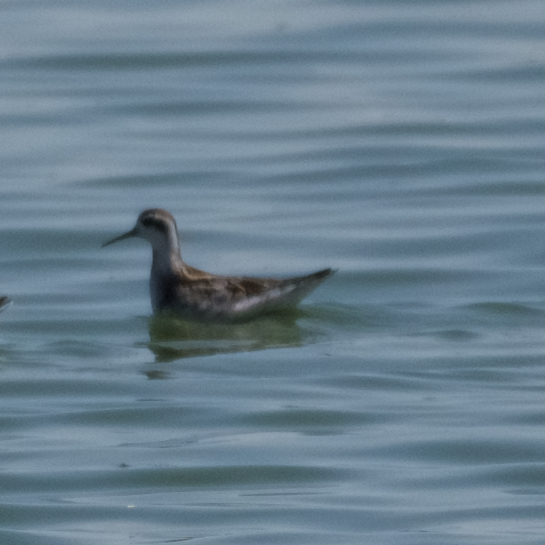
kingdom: Animalia
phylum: Chordata
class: Aves
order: Charadriiformes
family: Scolopacidae
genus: Phalaropus
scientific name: Phalaropus lobatus
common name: Red-necked phalarope
